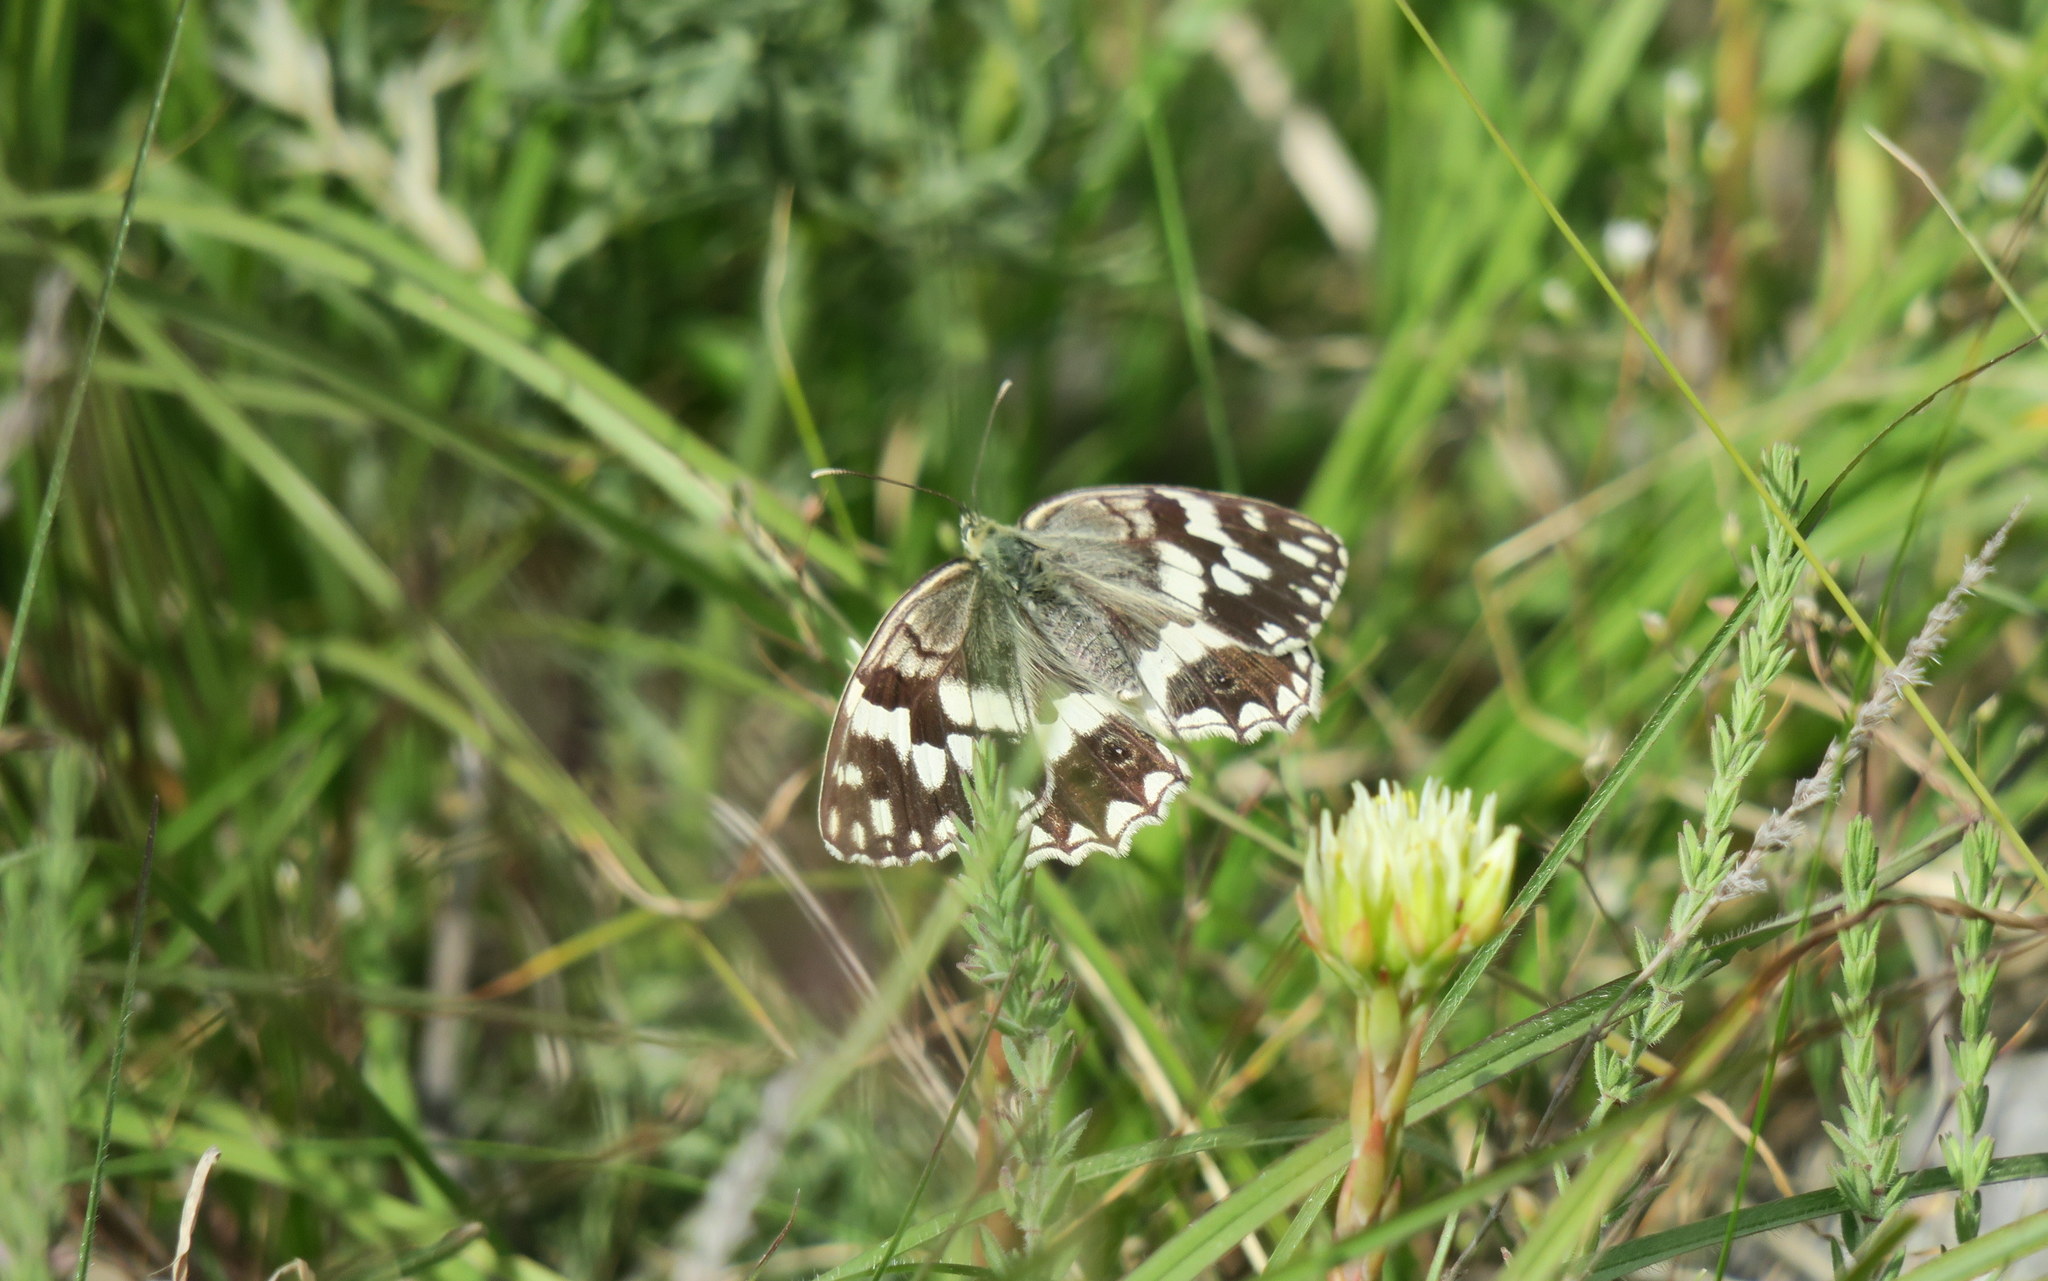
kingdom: Animalia
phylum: Arthropoda
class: Insecta
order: Lepidoptera
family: Nymphalidae
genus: Melanargia
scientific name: Melanargia larissa
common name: Balkan marbled white
